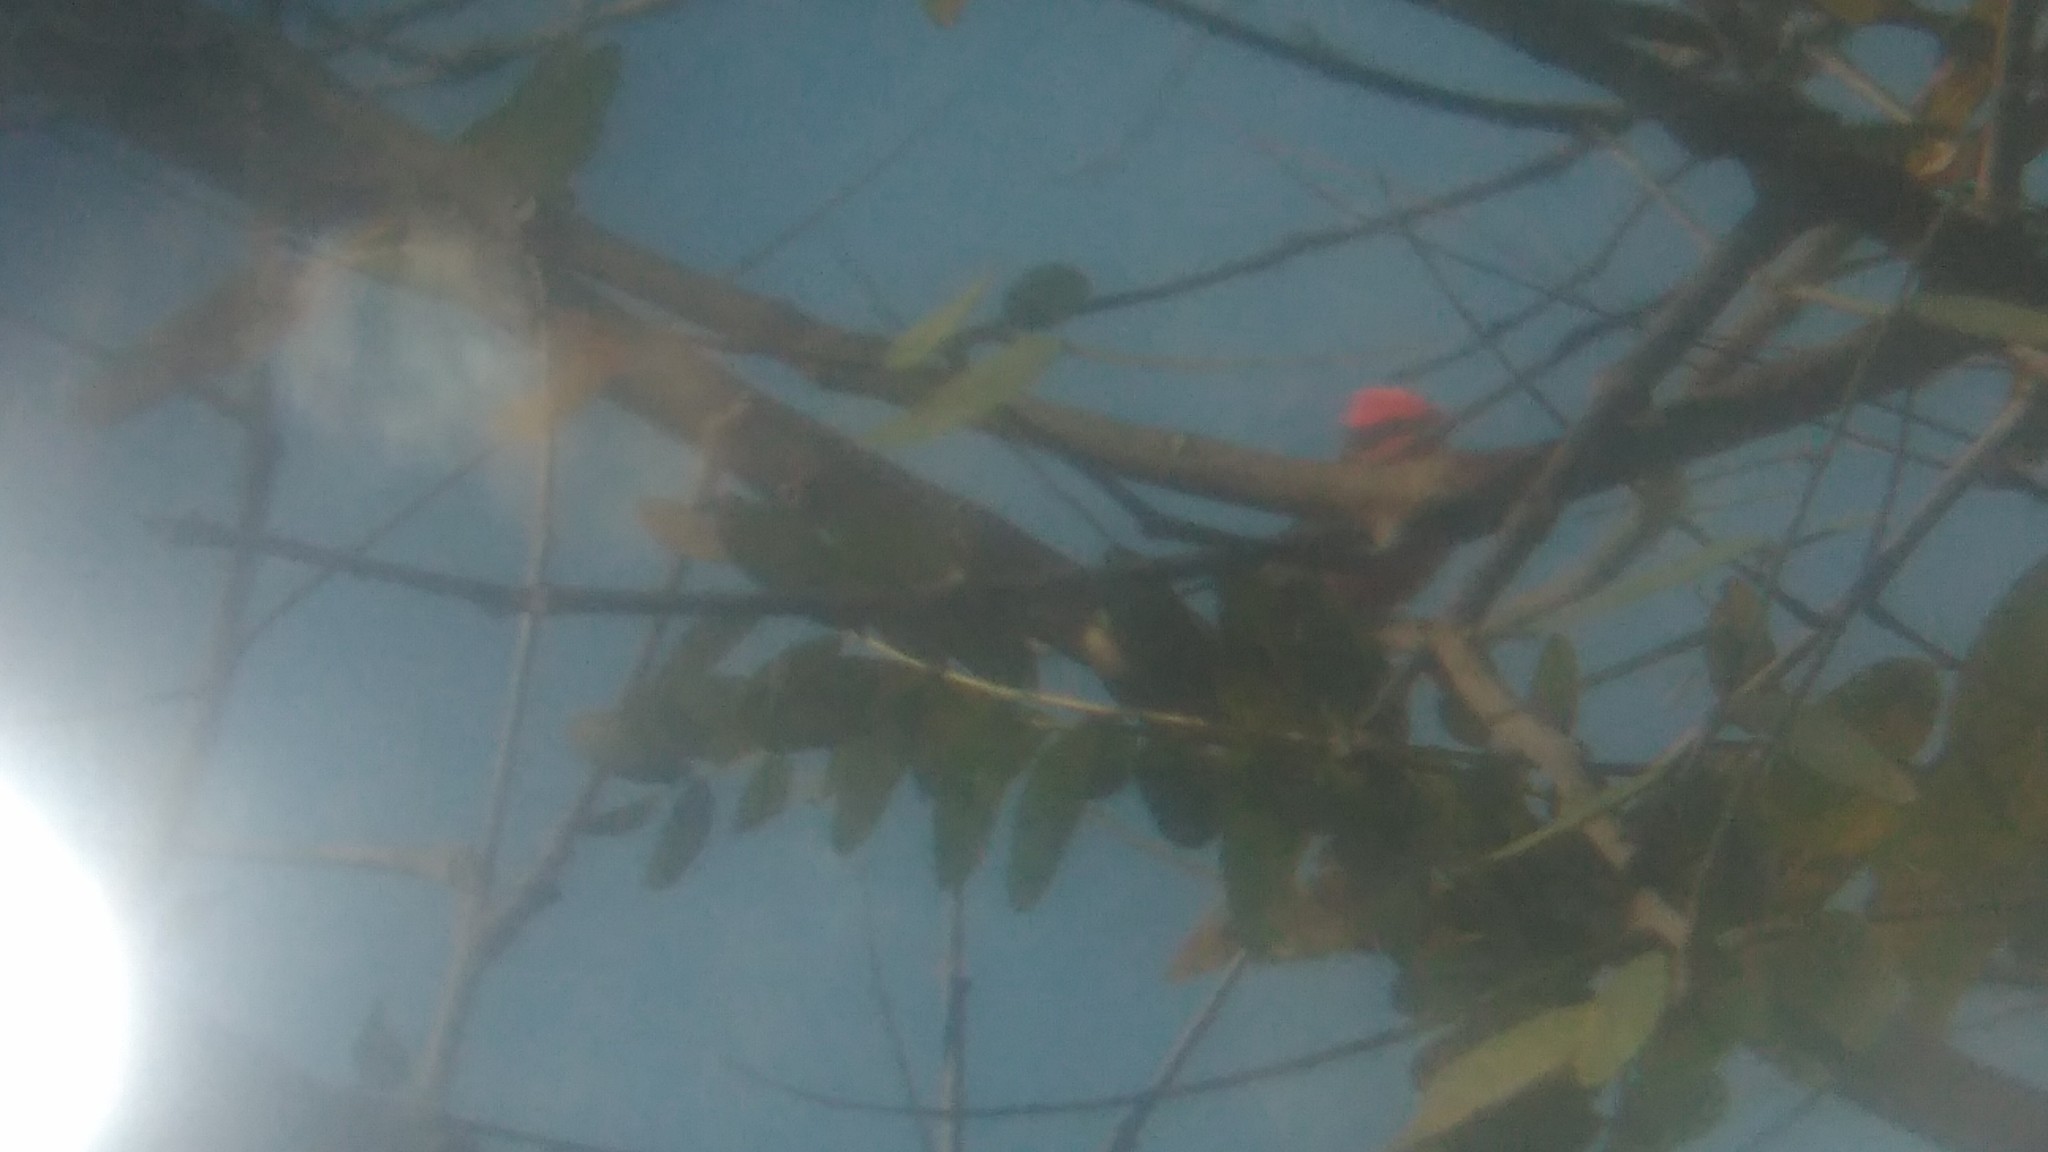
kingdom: Animalia
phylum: Chordata
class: Aves
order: Passeriformes
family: Tyrannidae
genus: Pyrocephalus
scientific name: Pyrocephalus rubinus
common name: Vermilion flycatcher
